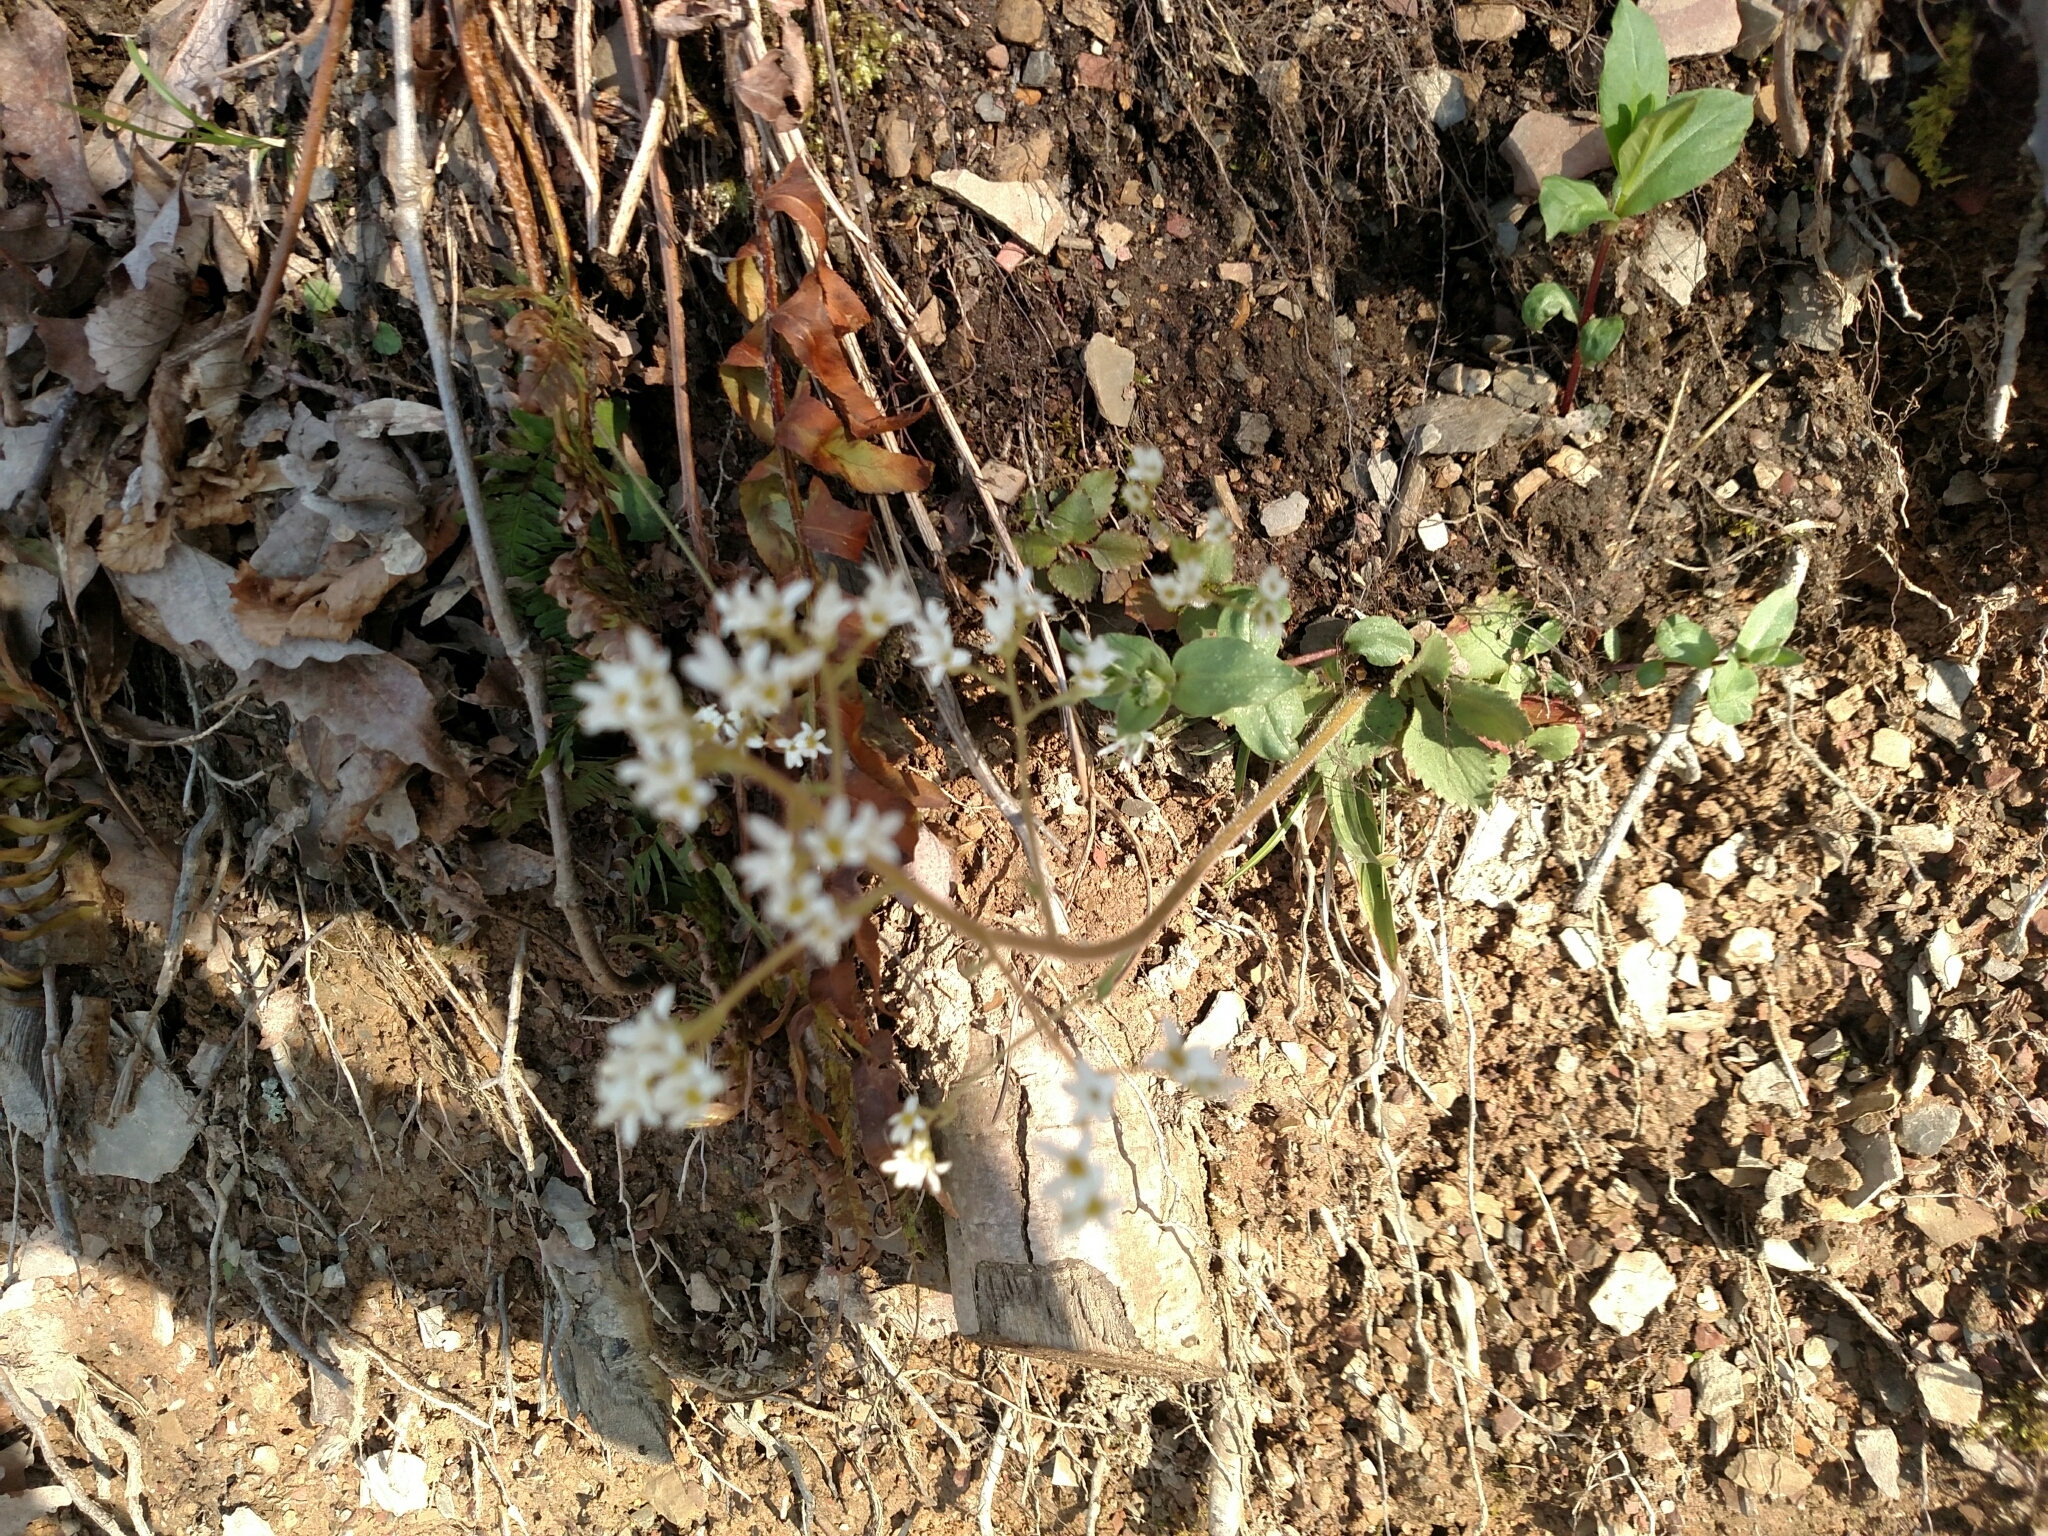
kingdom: Plantae
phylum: Tracheophyta
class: Magnoliopsida
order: Saxifragales
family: Saxifragaceae
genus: Micranthes
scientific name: Micranthes virginiensis
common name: Early saxifrage
